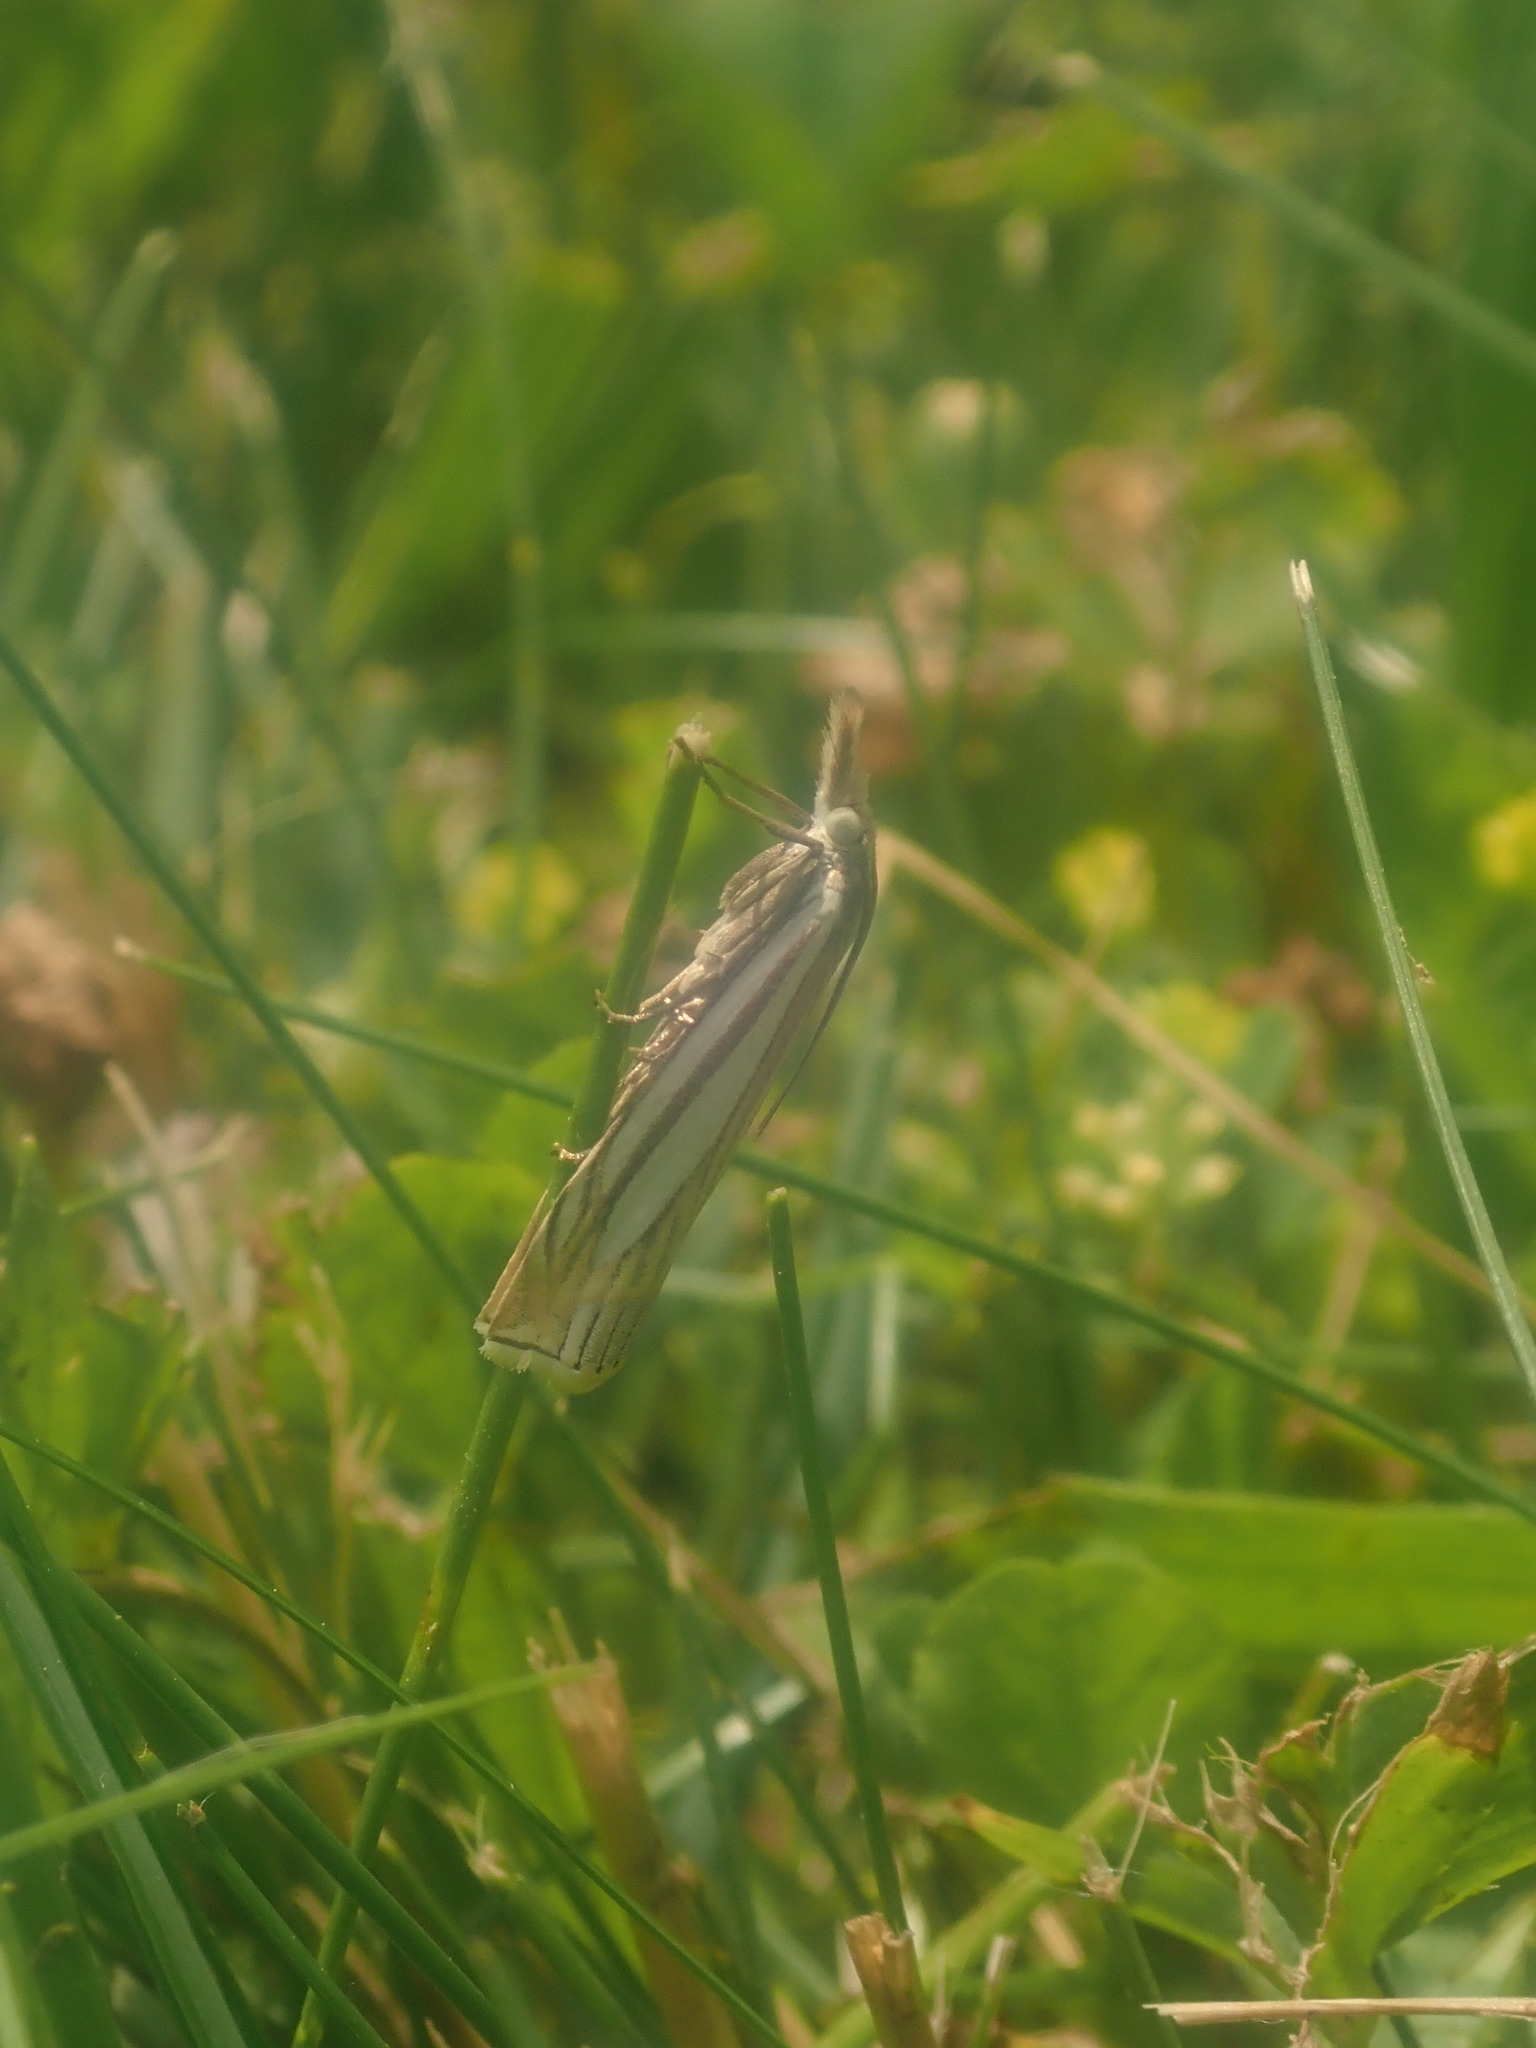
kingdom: Animalia
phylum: Arthropoda
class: Insecta
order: Lepidoptera
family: Crambidae
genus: Crambus
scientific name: Crambus laqueatellus
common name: Eastern grass-veneer
